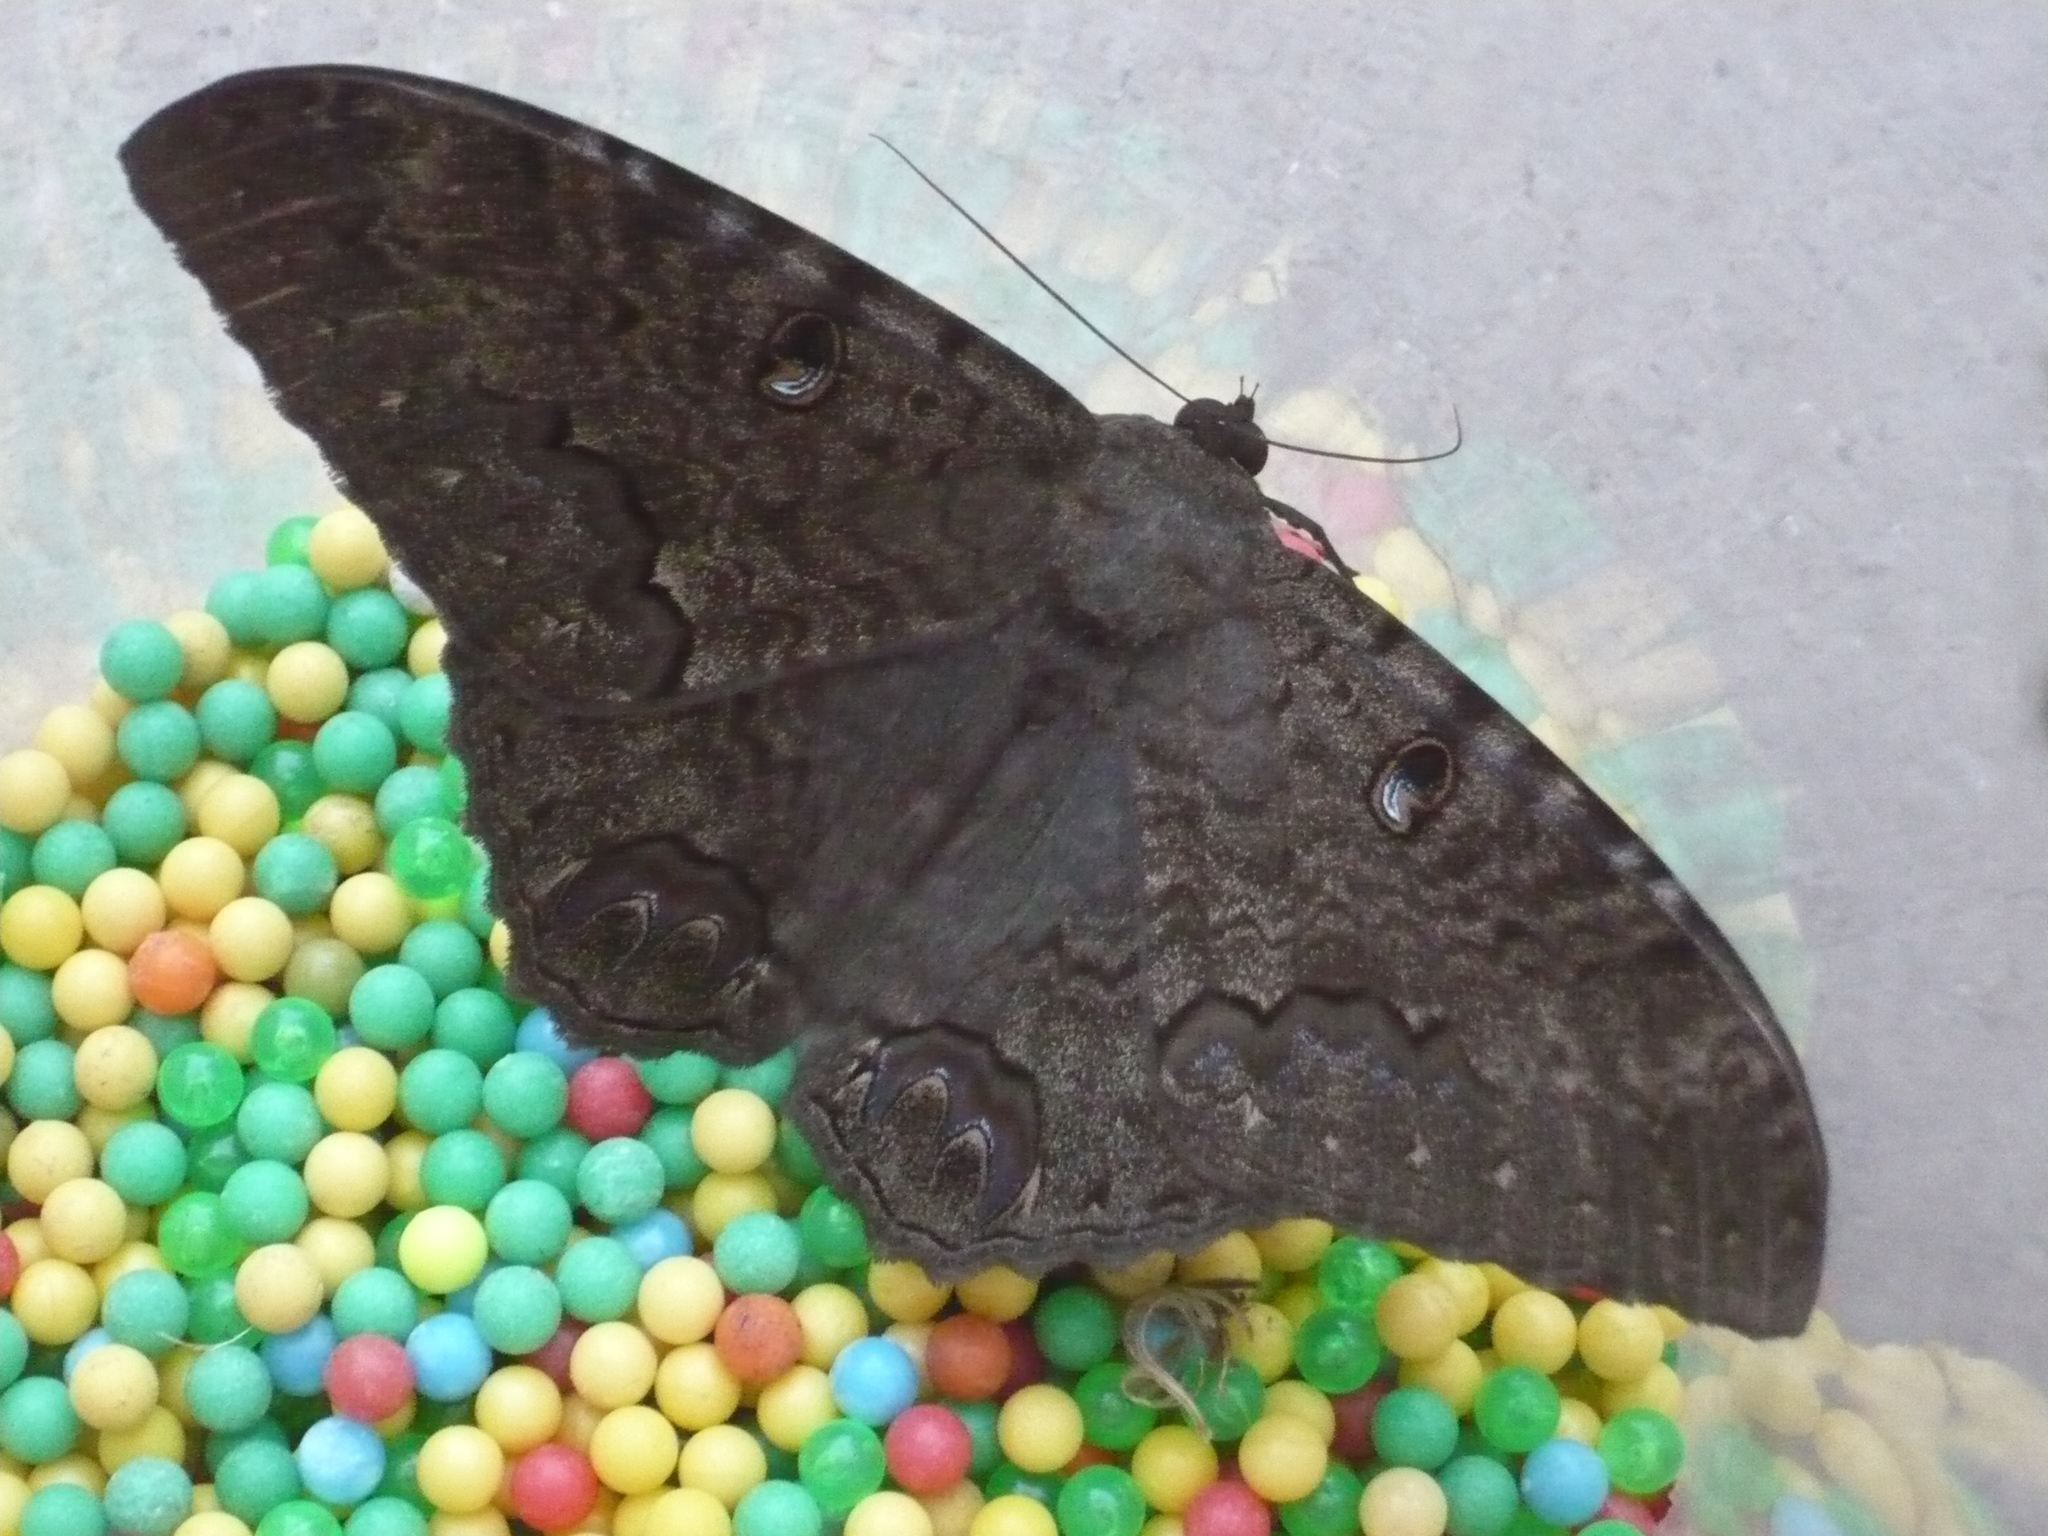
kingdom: Animalia
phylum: Arthropoda
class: Insecta
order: Lepidoptera
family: Erebidae
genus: Ascalapha
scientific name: Ascalapha odorata
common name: Black witch
